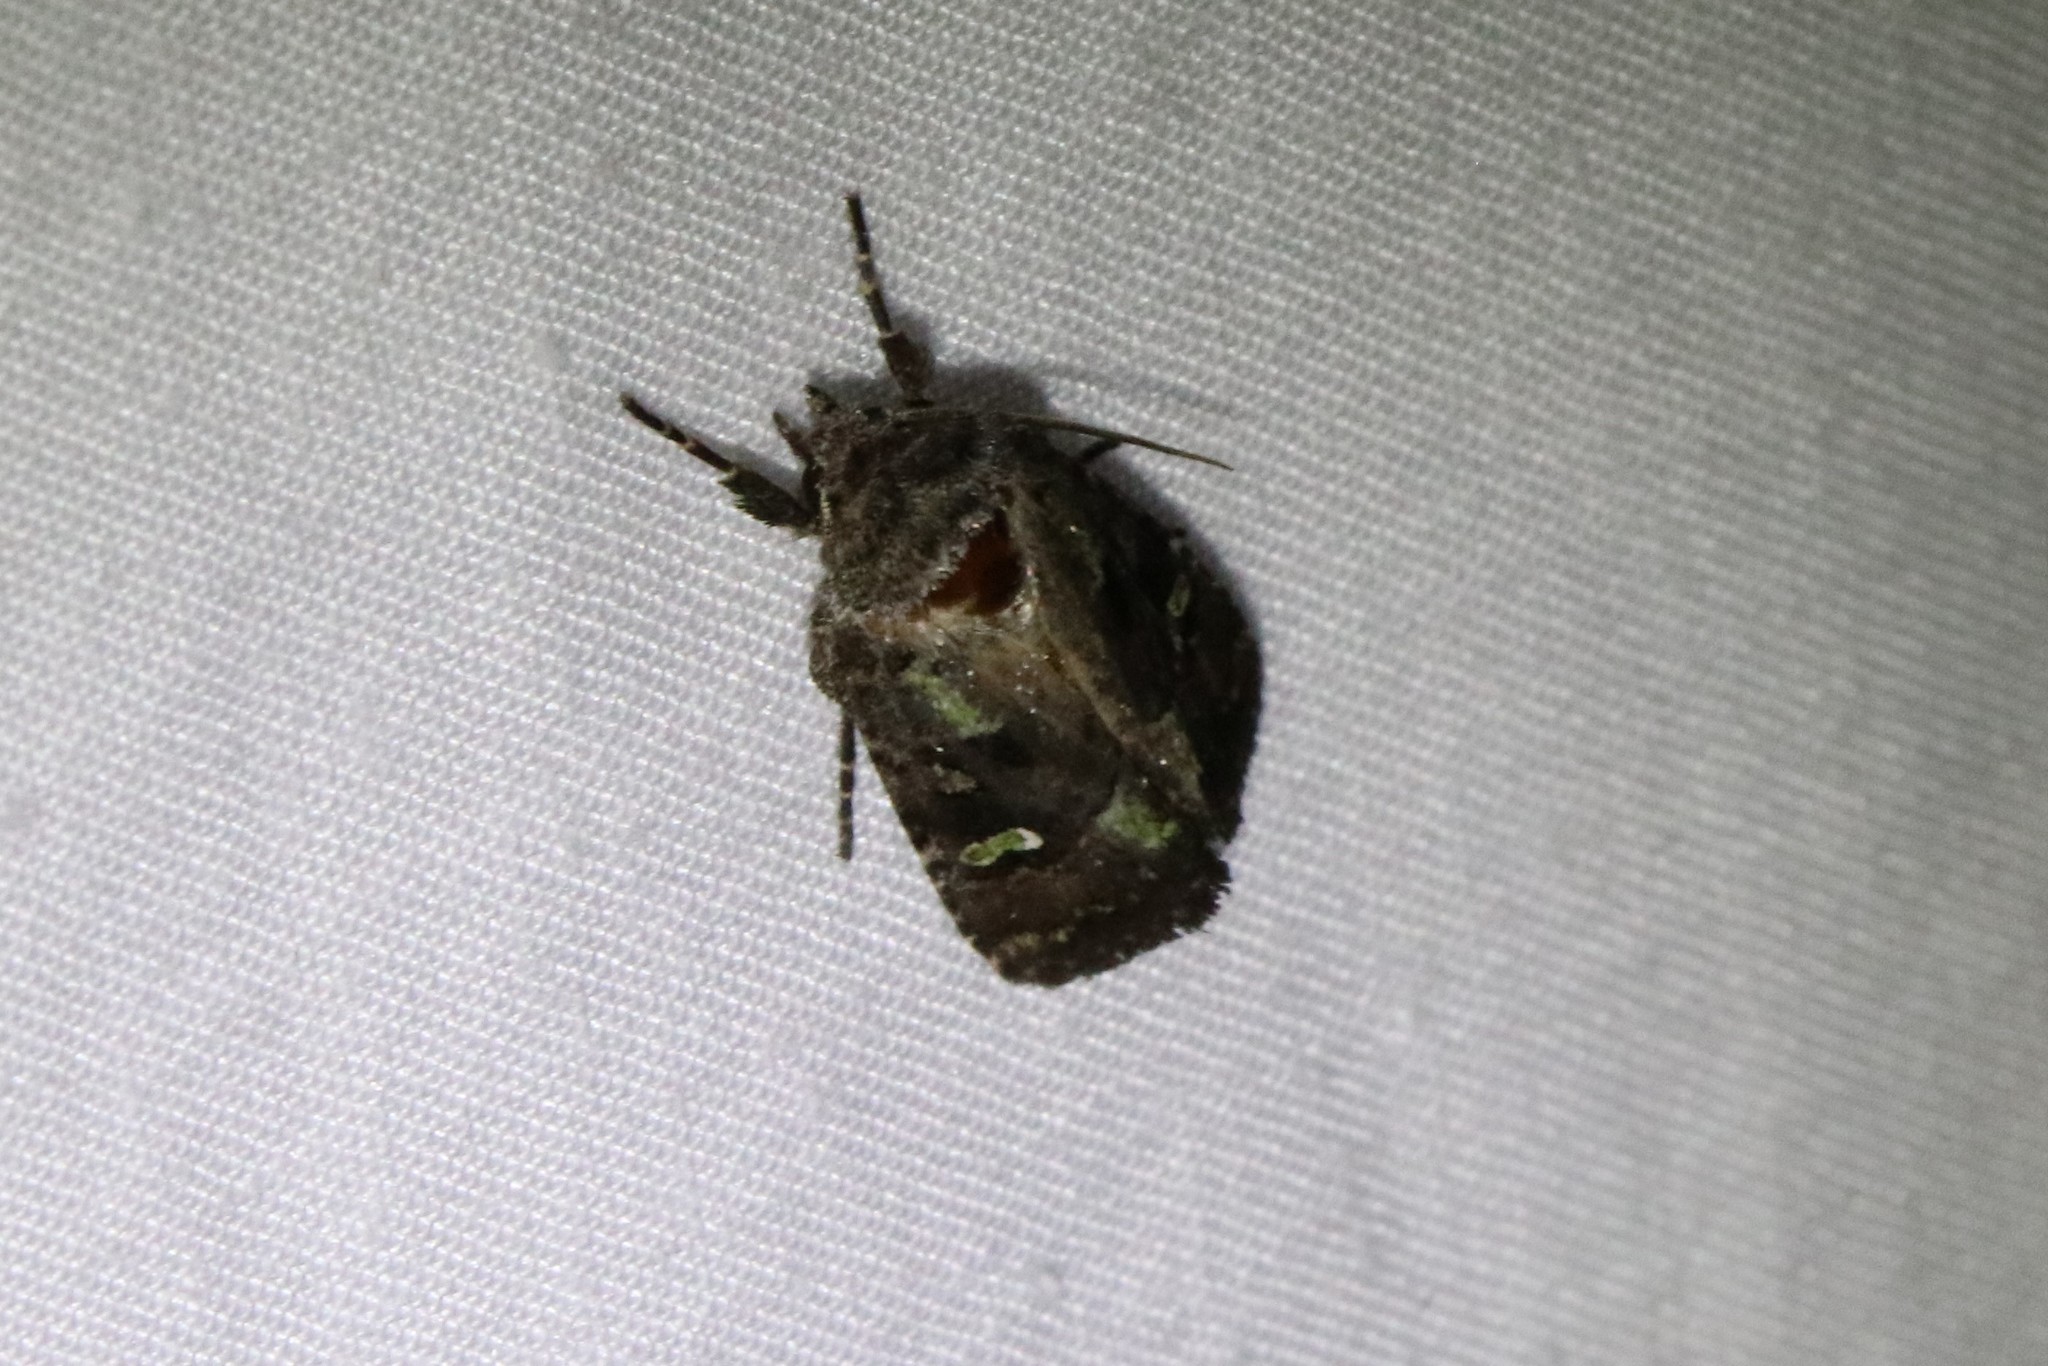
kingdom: Animalia
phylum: Arthropoda
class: Insecta
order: Lepidoptera
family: Noctuidae
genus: Lacinipolia
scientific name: Lacinipolia renigera
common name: Kidney-spotted minor
